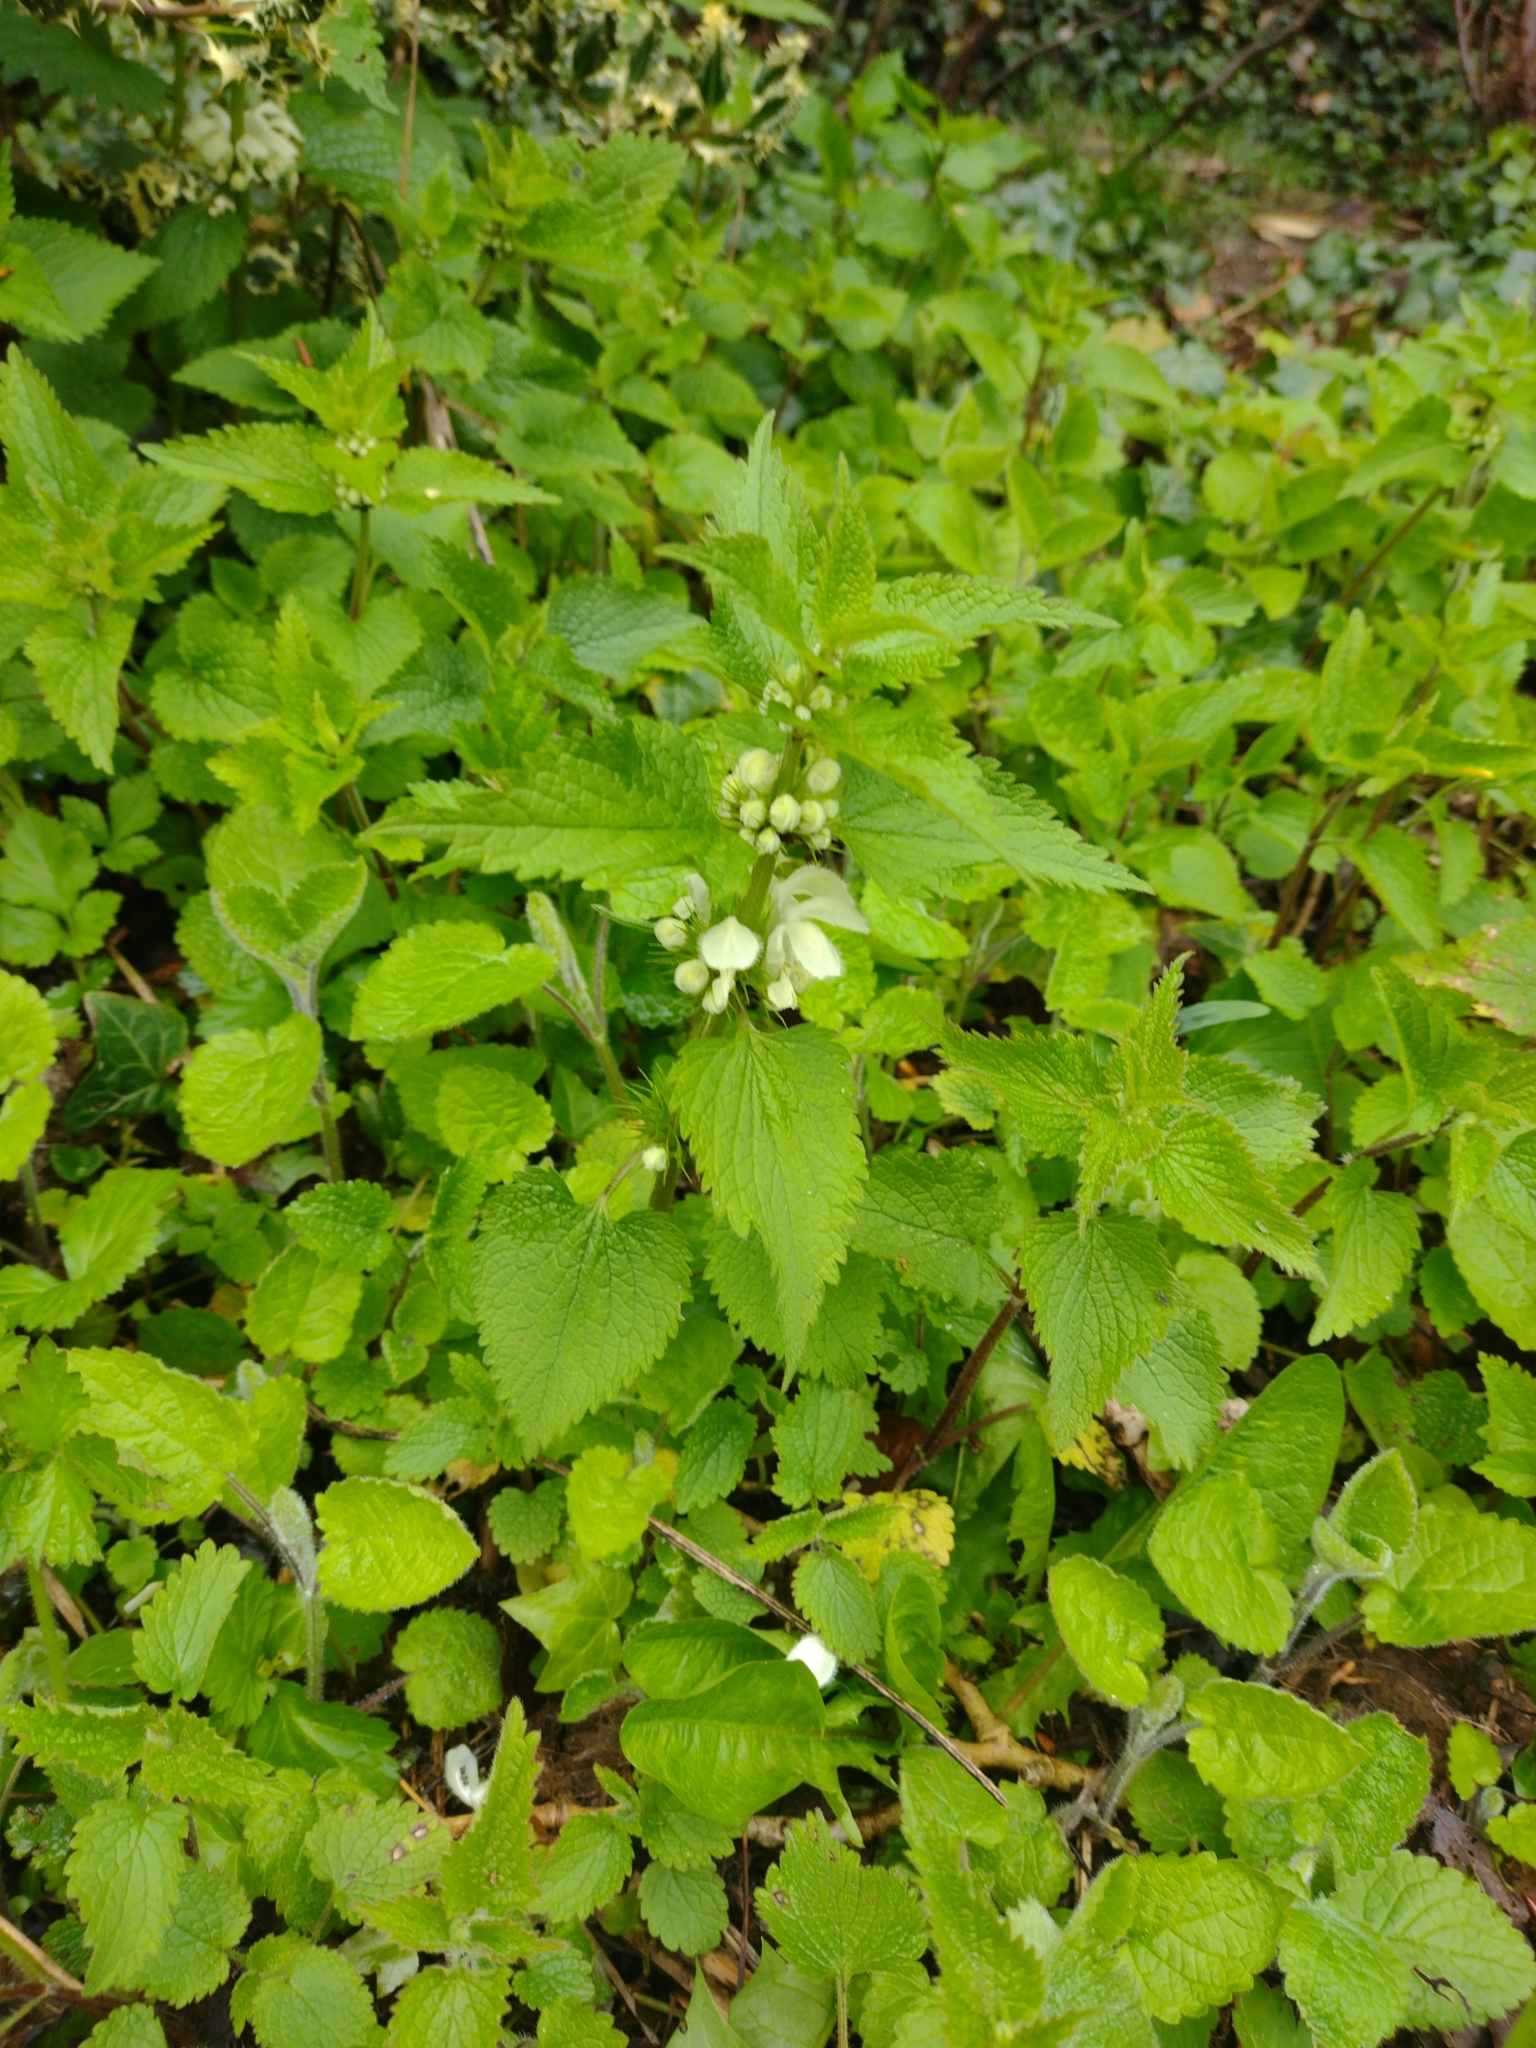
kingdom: Plantae
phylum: Tracheophyta
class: Magnoliopsida
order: Lamiales
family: Lamiaceae
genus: Lamium
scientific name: Lamium album
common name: White dead-nettle
